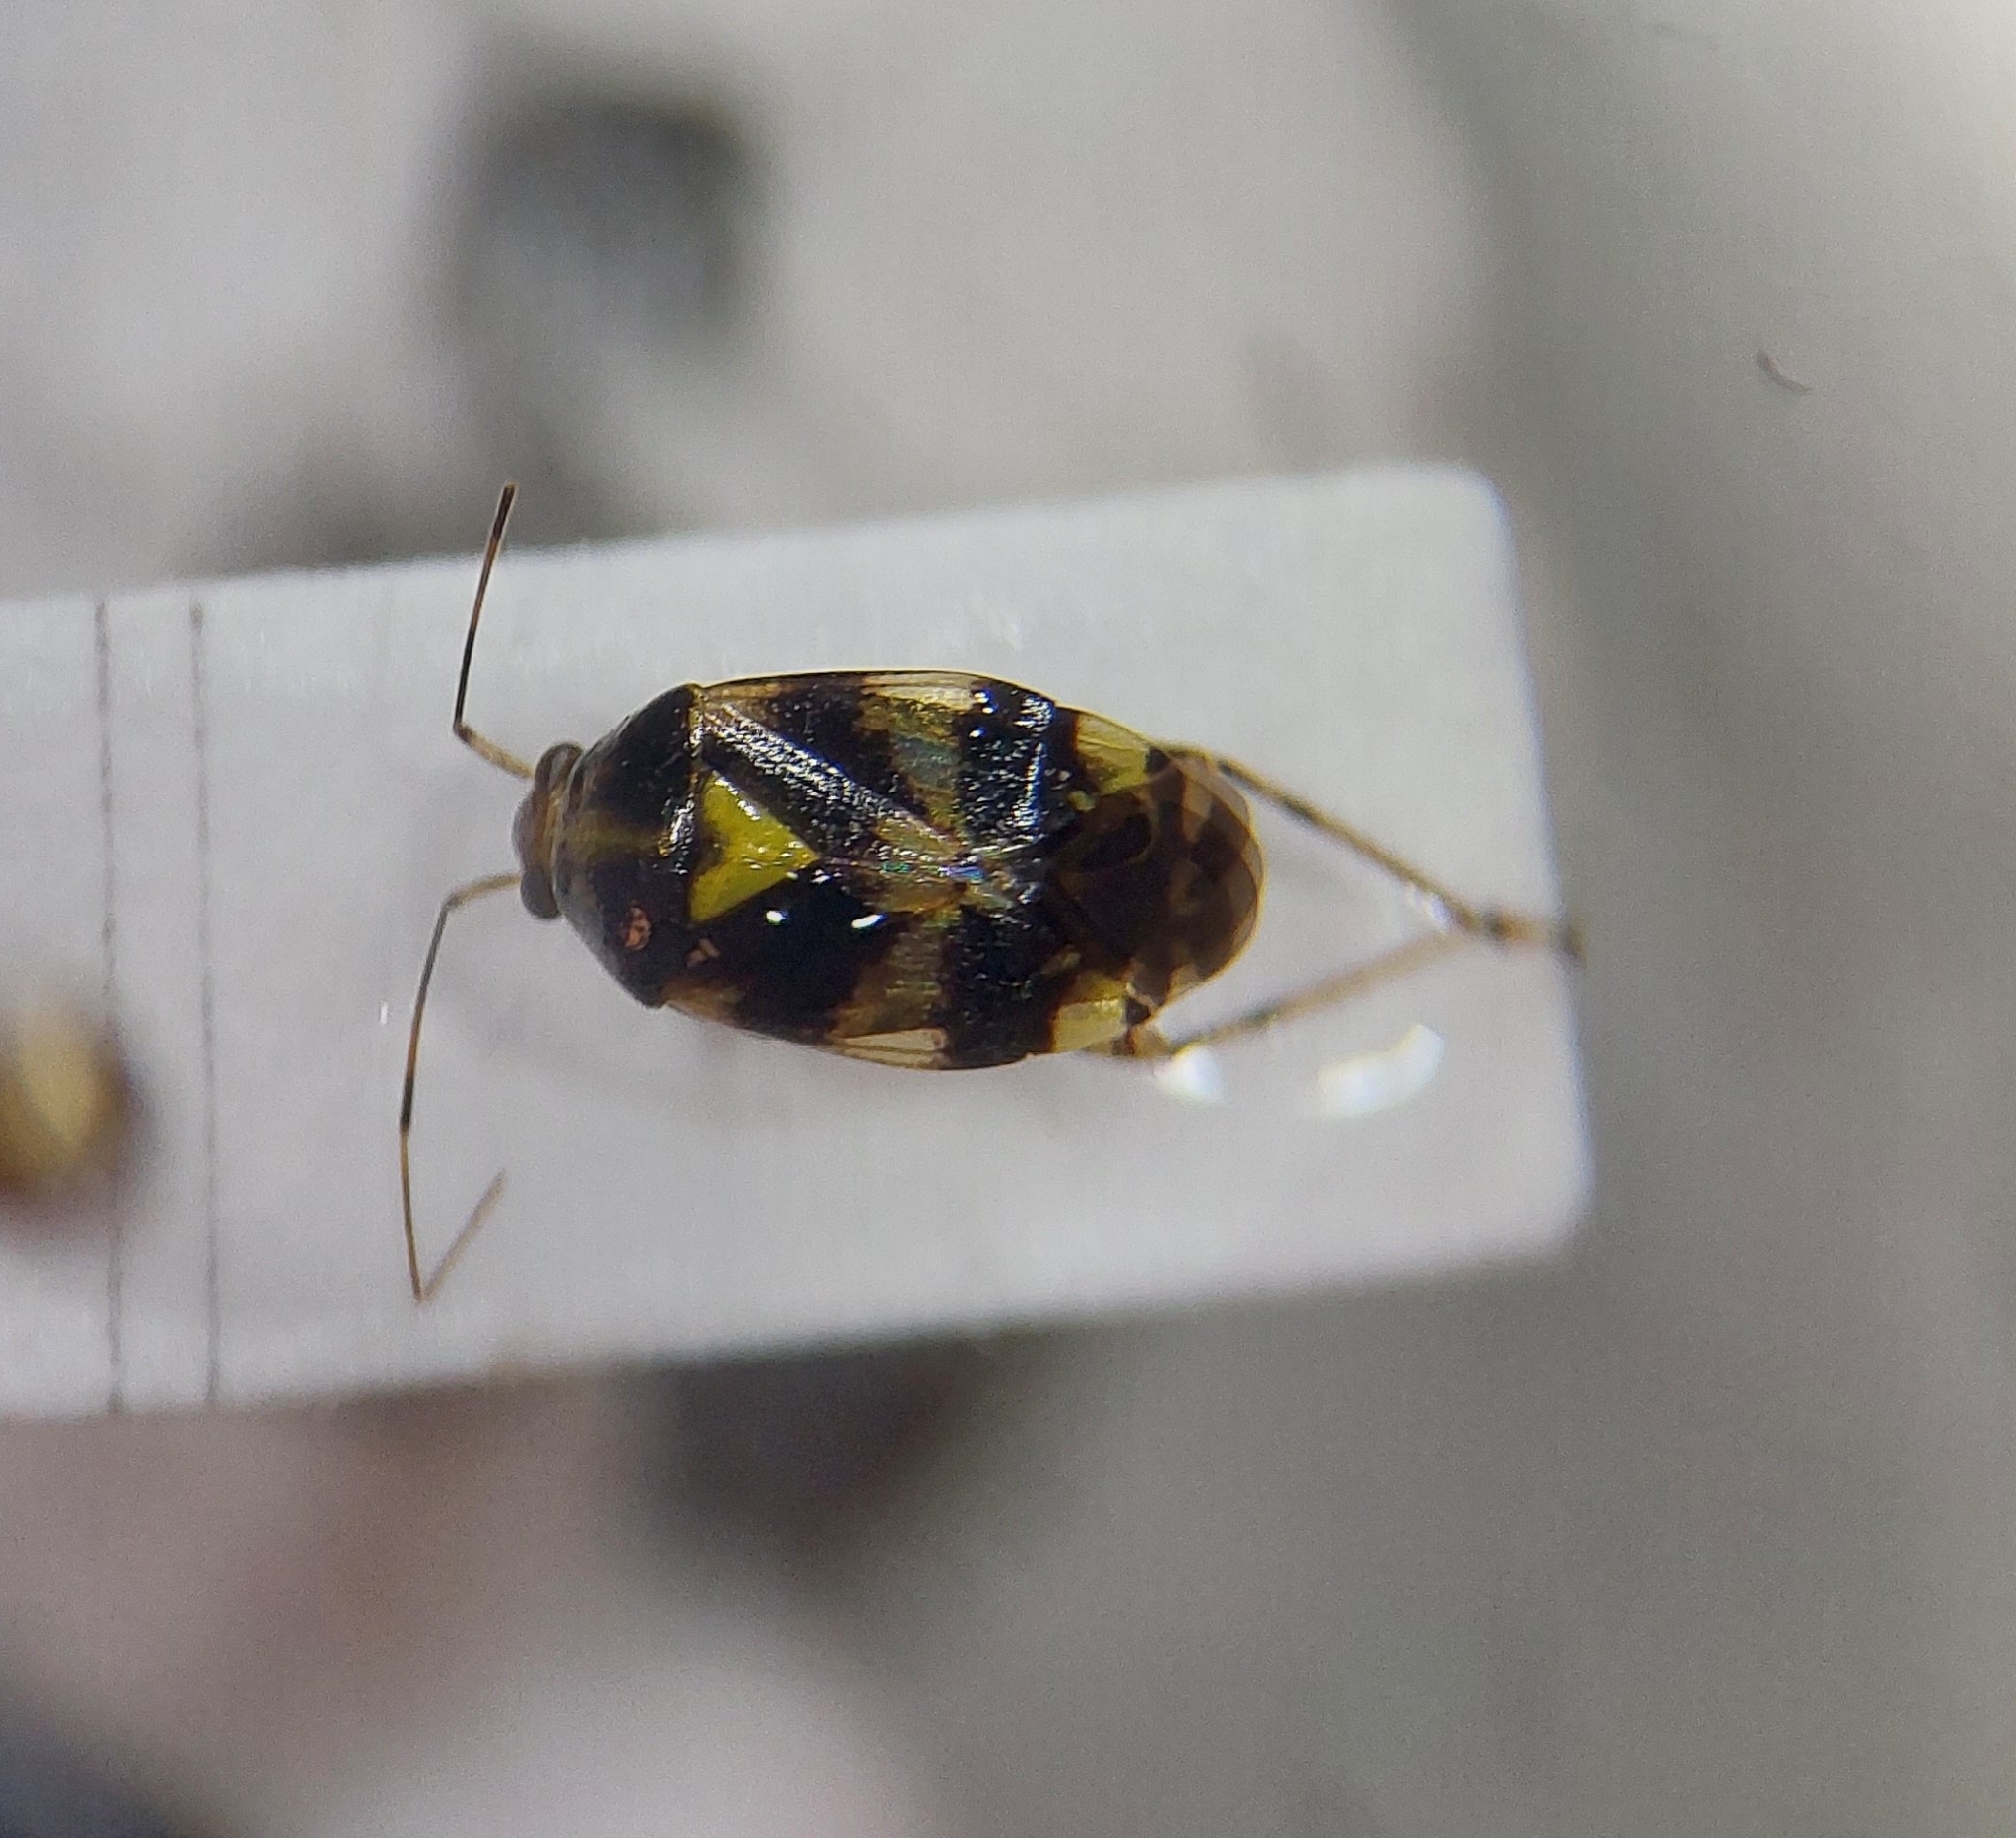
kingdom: Animalia
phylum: Arthropoda
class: Insecta
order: Hemiptera
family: Miridae
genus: Liocoris
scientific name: Liocoris tripustulatus
